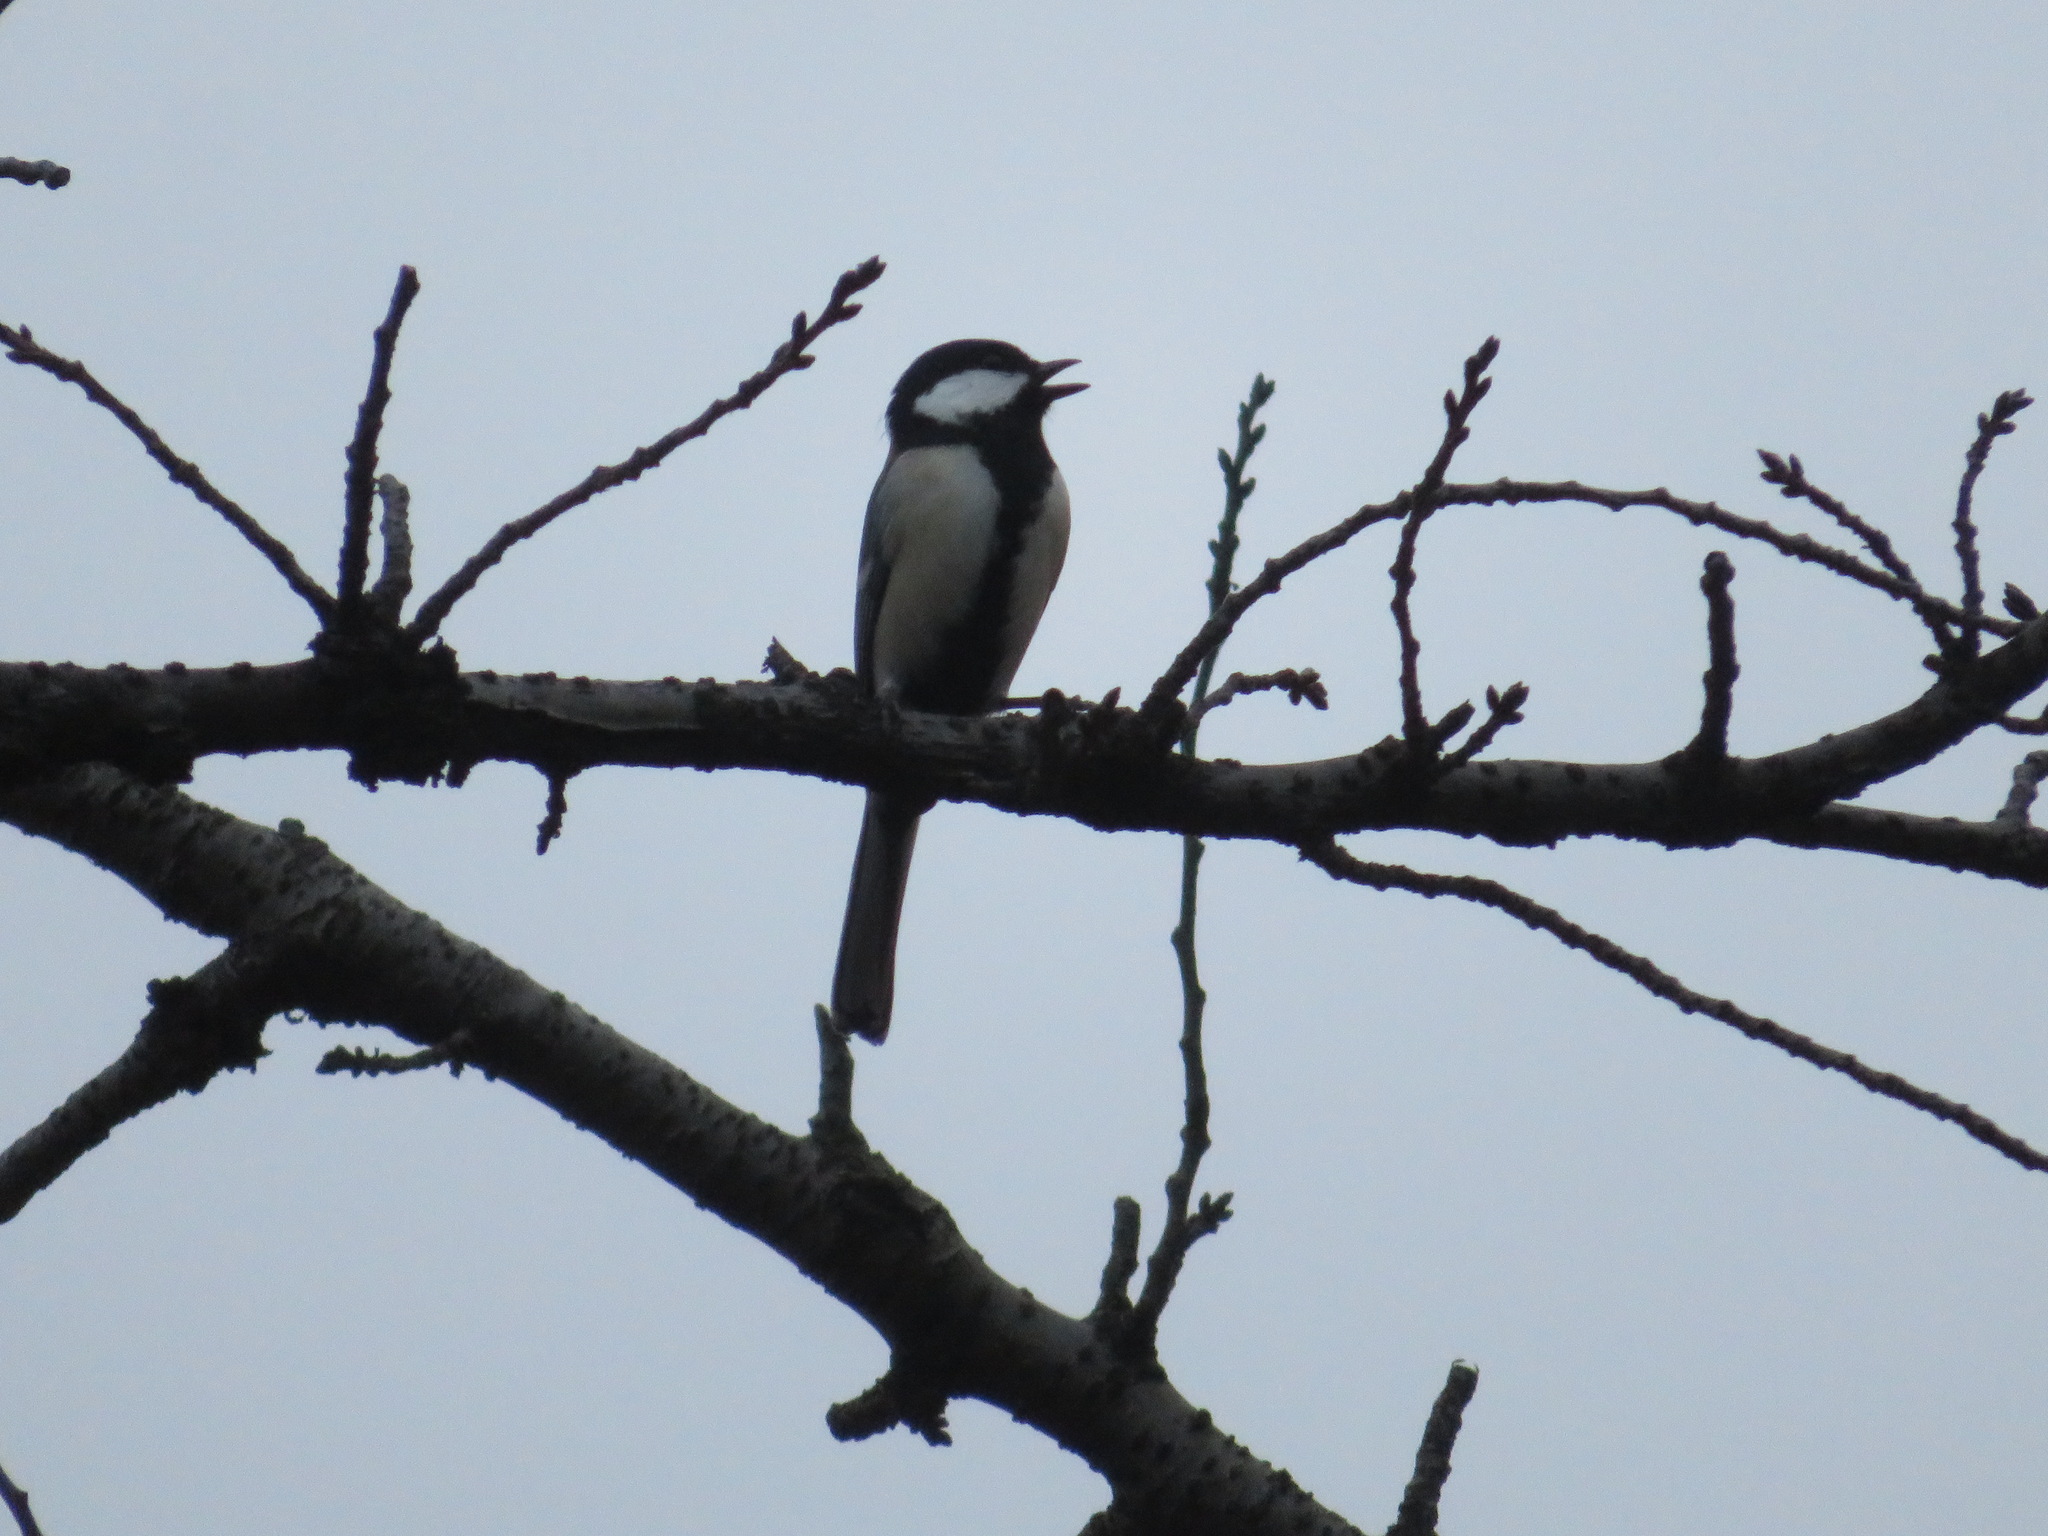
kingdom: Animalia
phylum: Chordata
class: Aves
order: Passeriformes
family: Paridae
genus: Parus
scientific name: Parus minor
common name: Japanese tit
